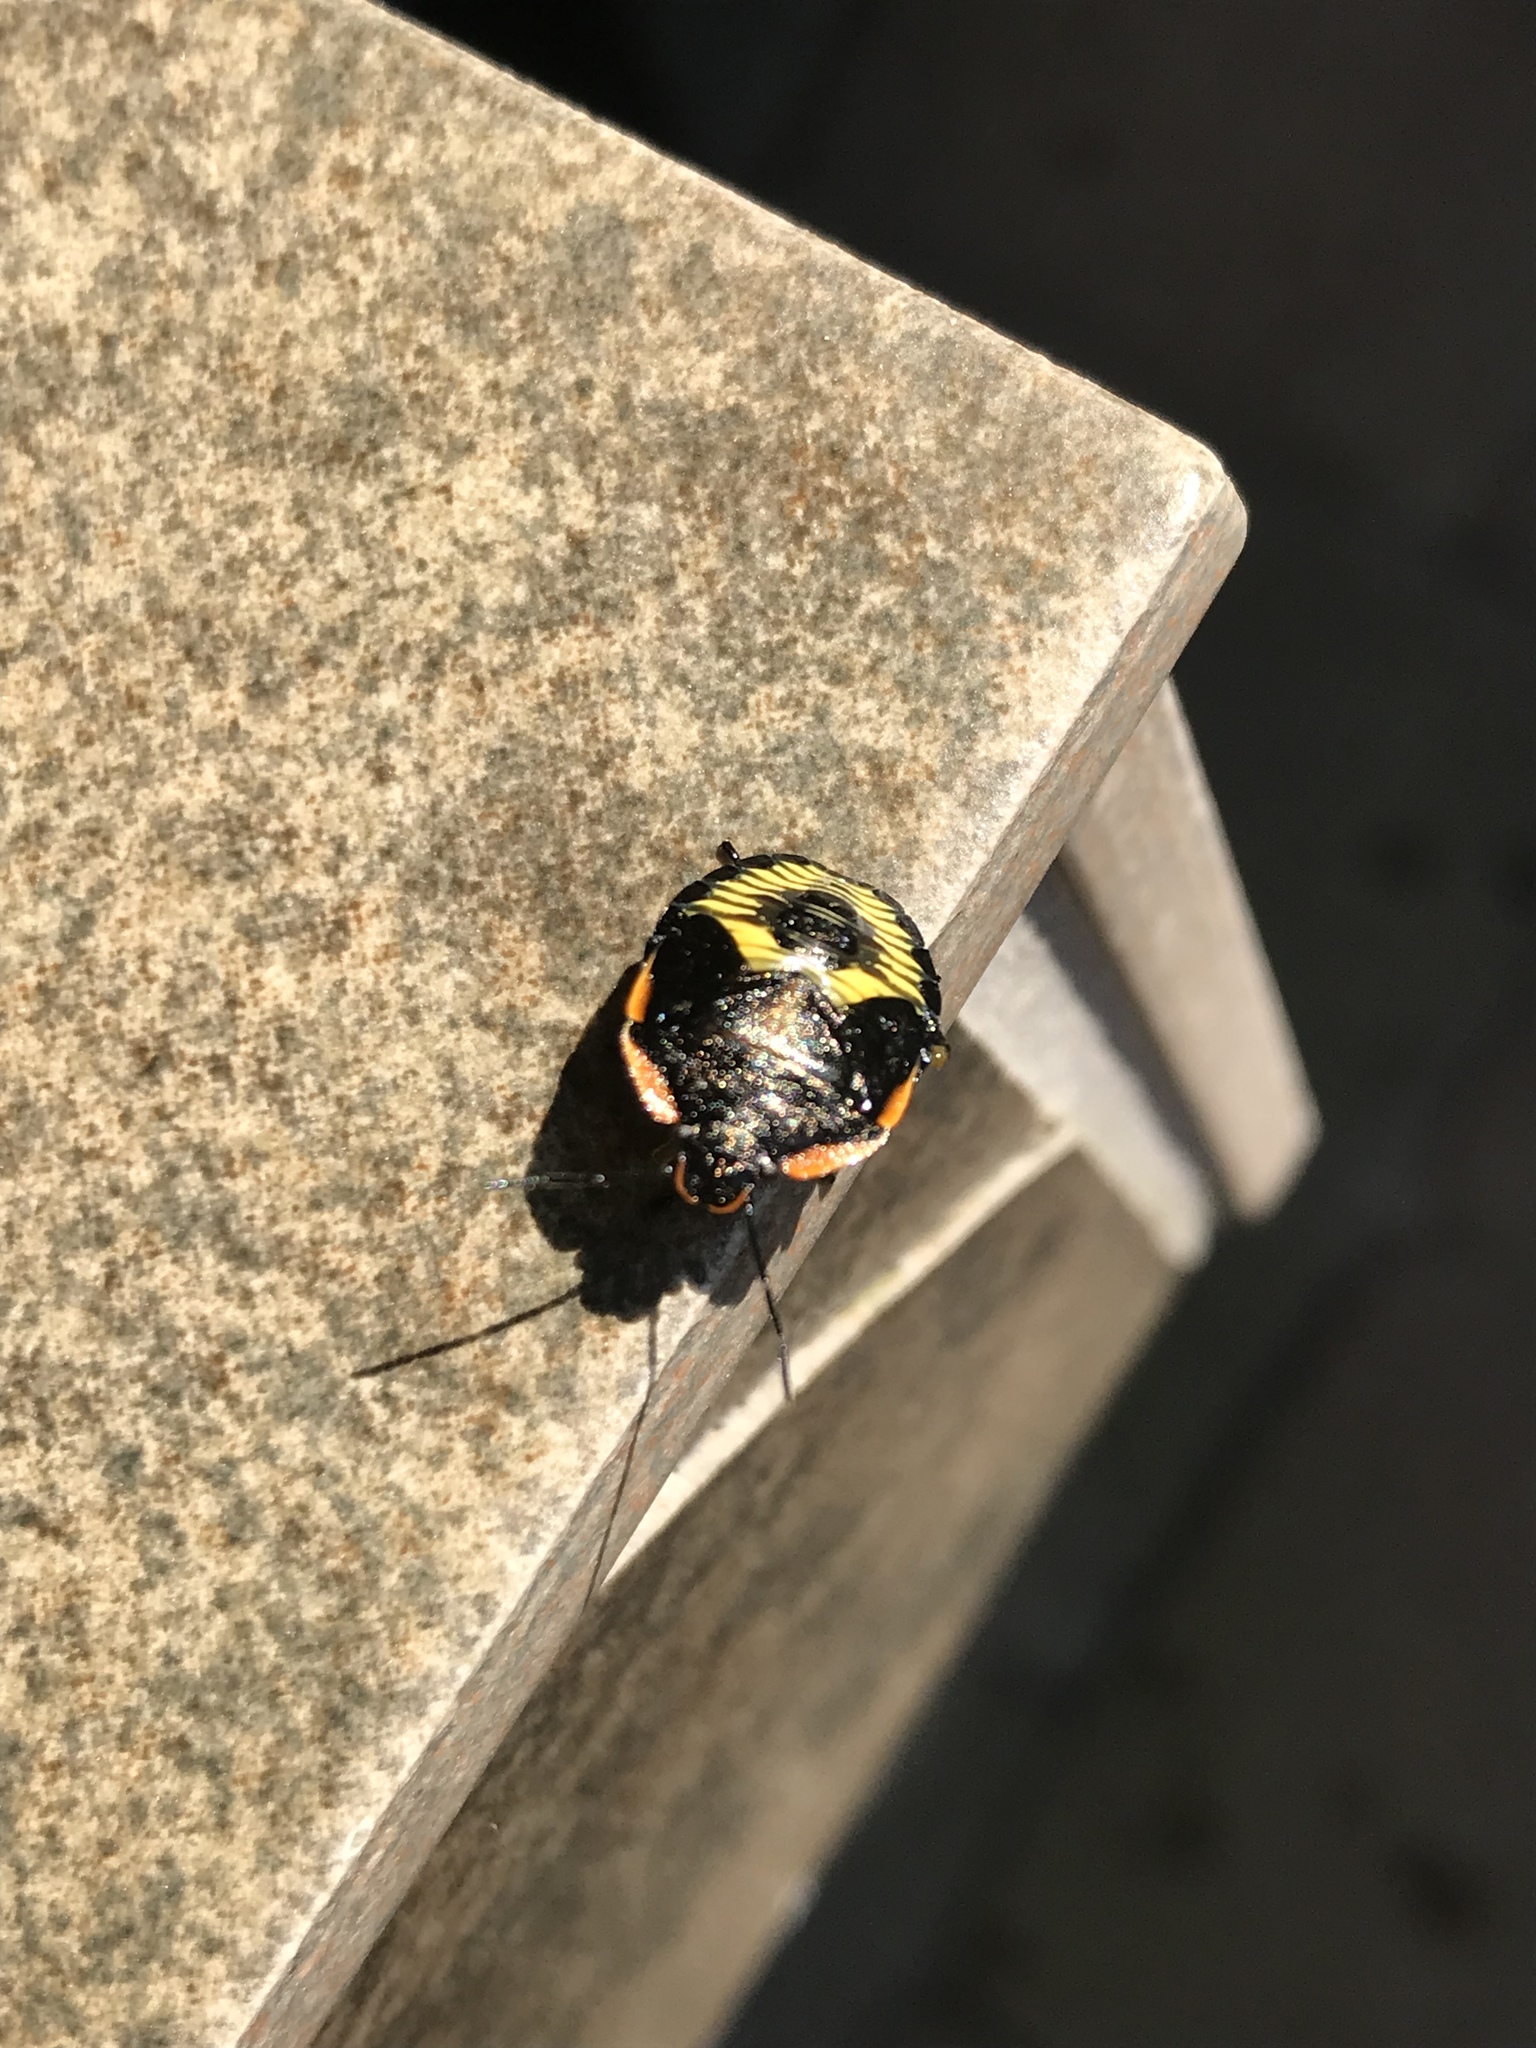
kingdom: Animalia
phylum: Arthropoda
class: Insecta
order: Hemiptera
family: Pentatomidae
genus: Chinavia
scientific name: Chinavia hilaris
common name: Green stink bug
